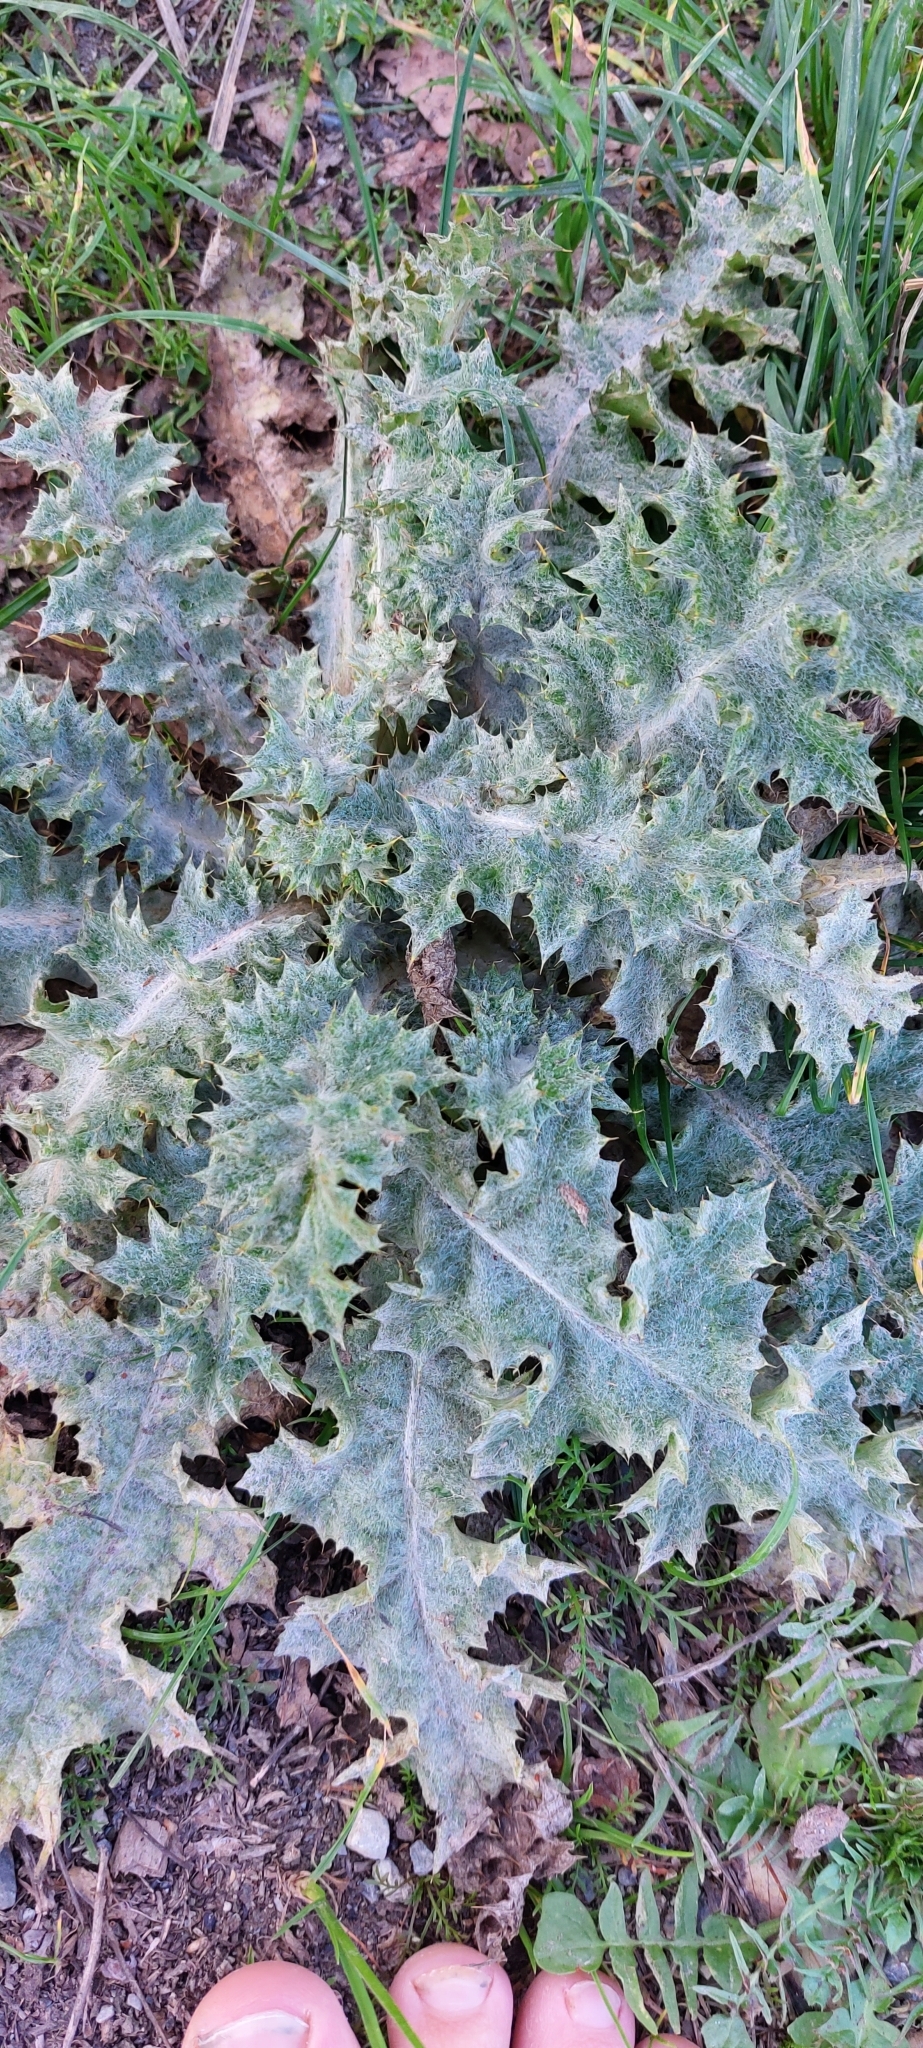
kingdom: Plantae
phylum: Tracheophyta
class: Magnoliopsida
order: Asterales
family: Asteraceae
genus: Onopordum
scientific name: Onopordum acanthium
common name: Scotch thistle
